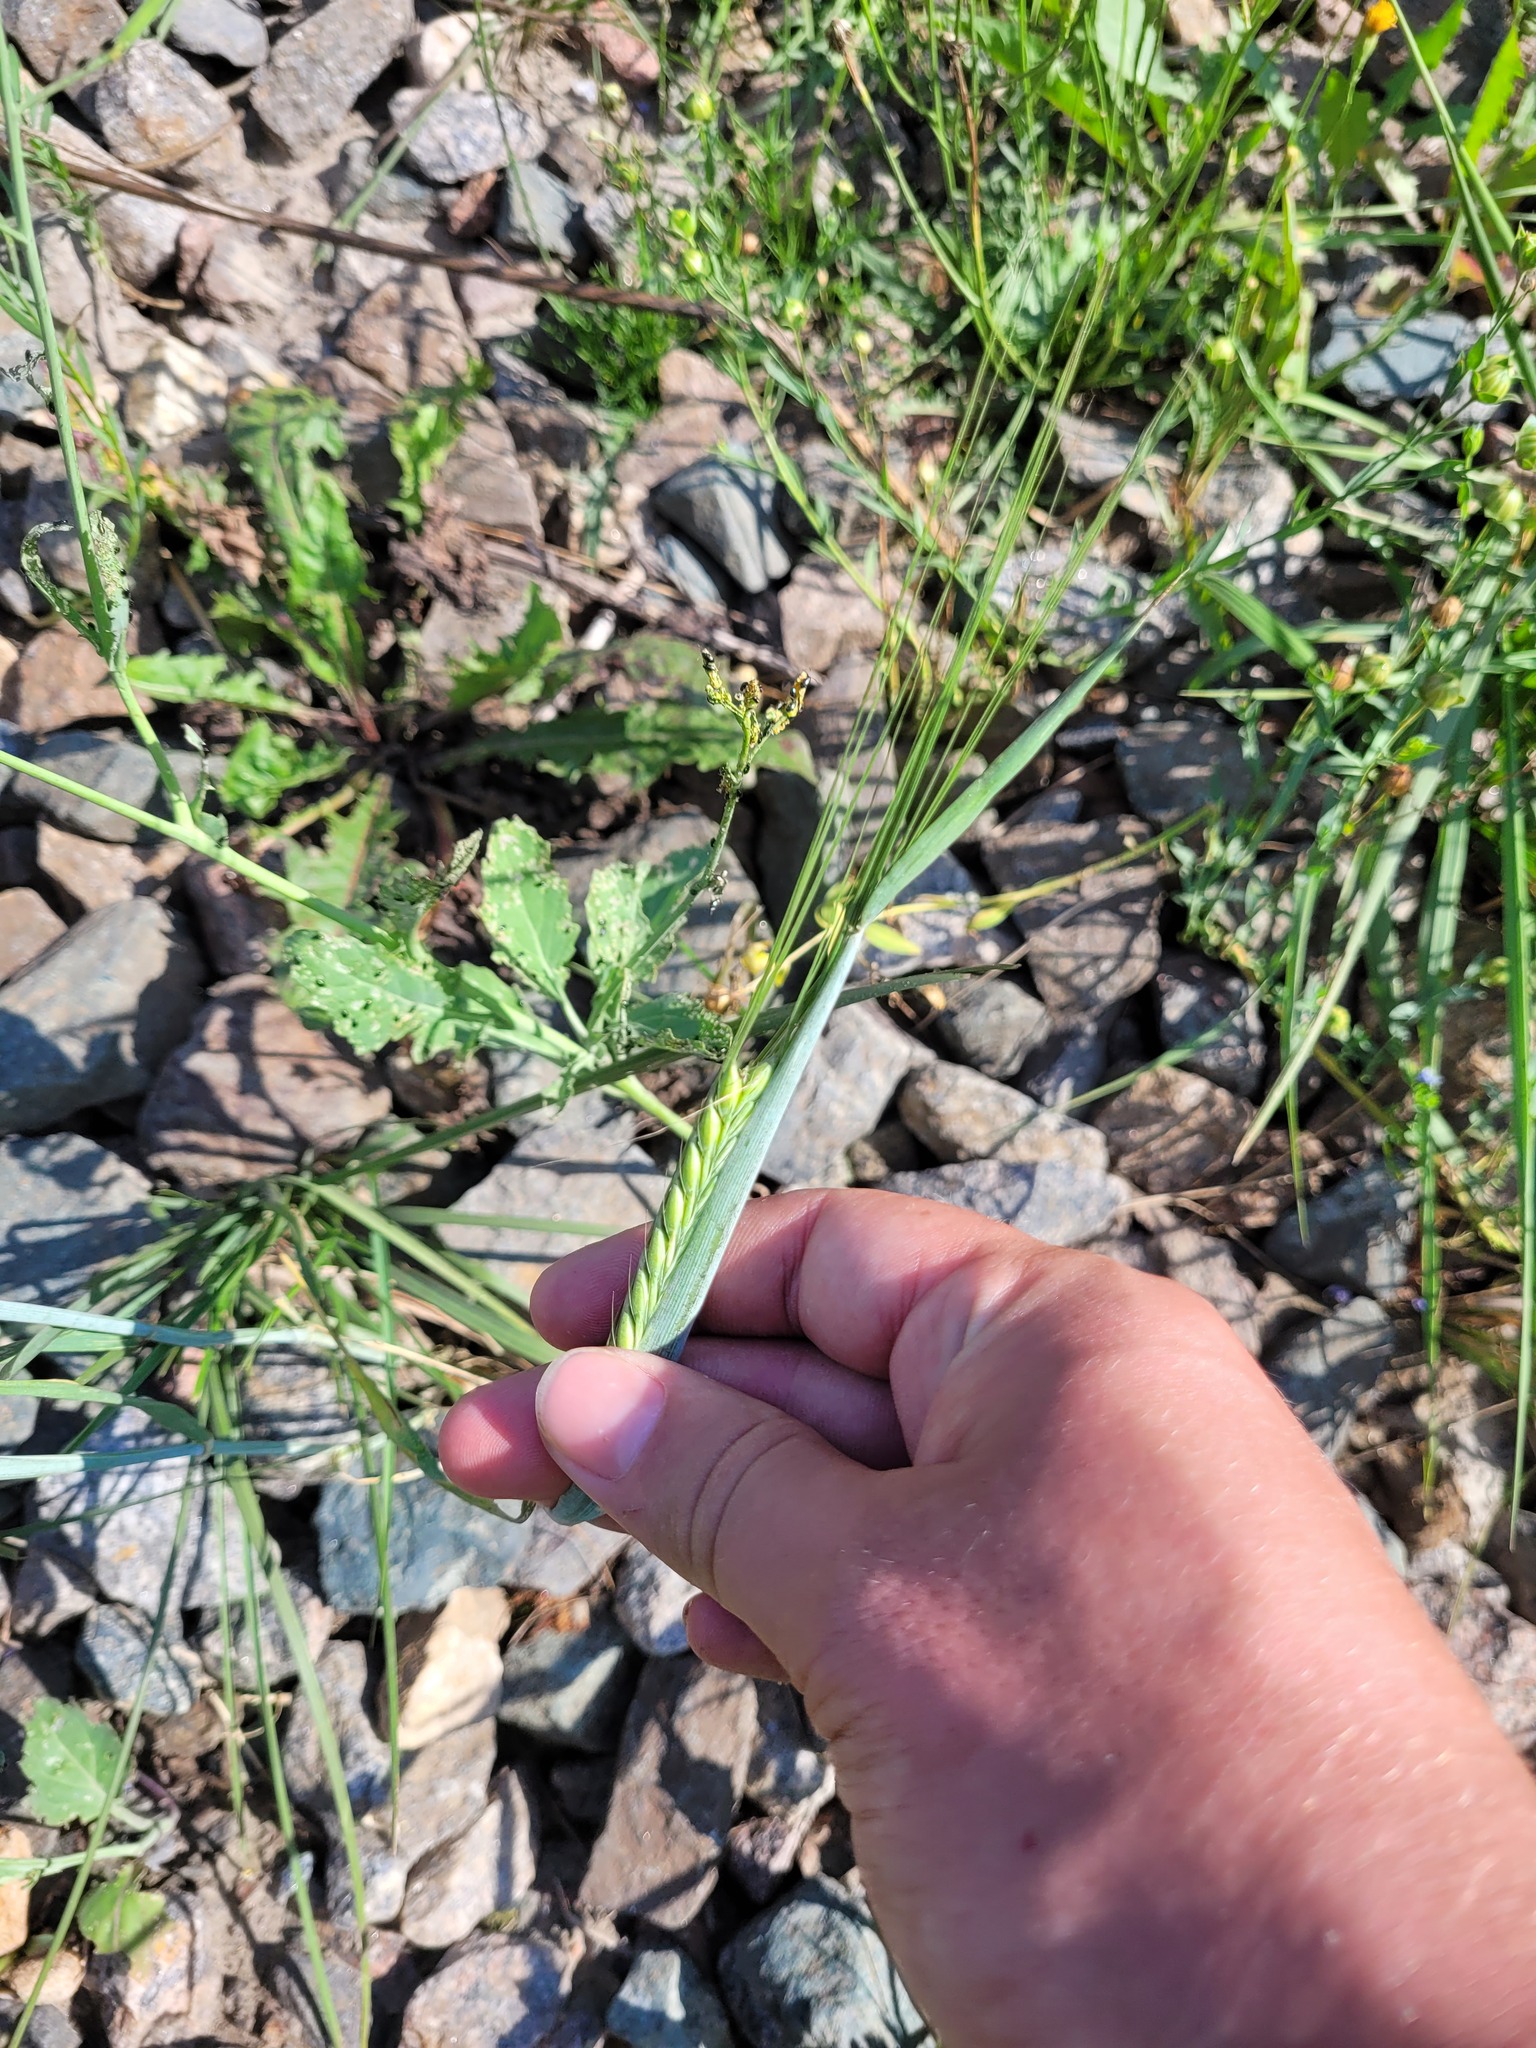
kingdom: Plantae
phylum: Tracheophyta
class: Liliopsida
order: Poales
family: Poaceae
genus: Hordeum
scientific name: Hordeum vulgare
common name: Common barley
